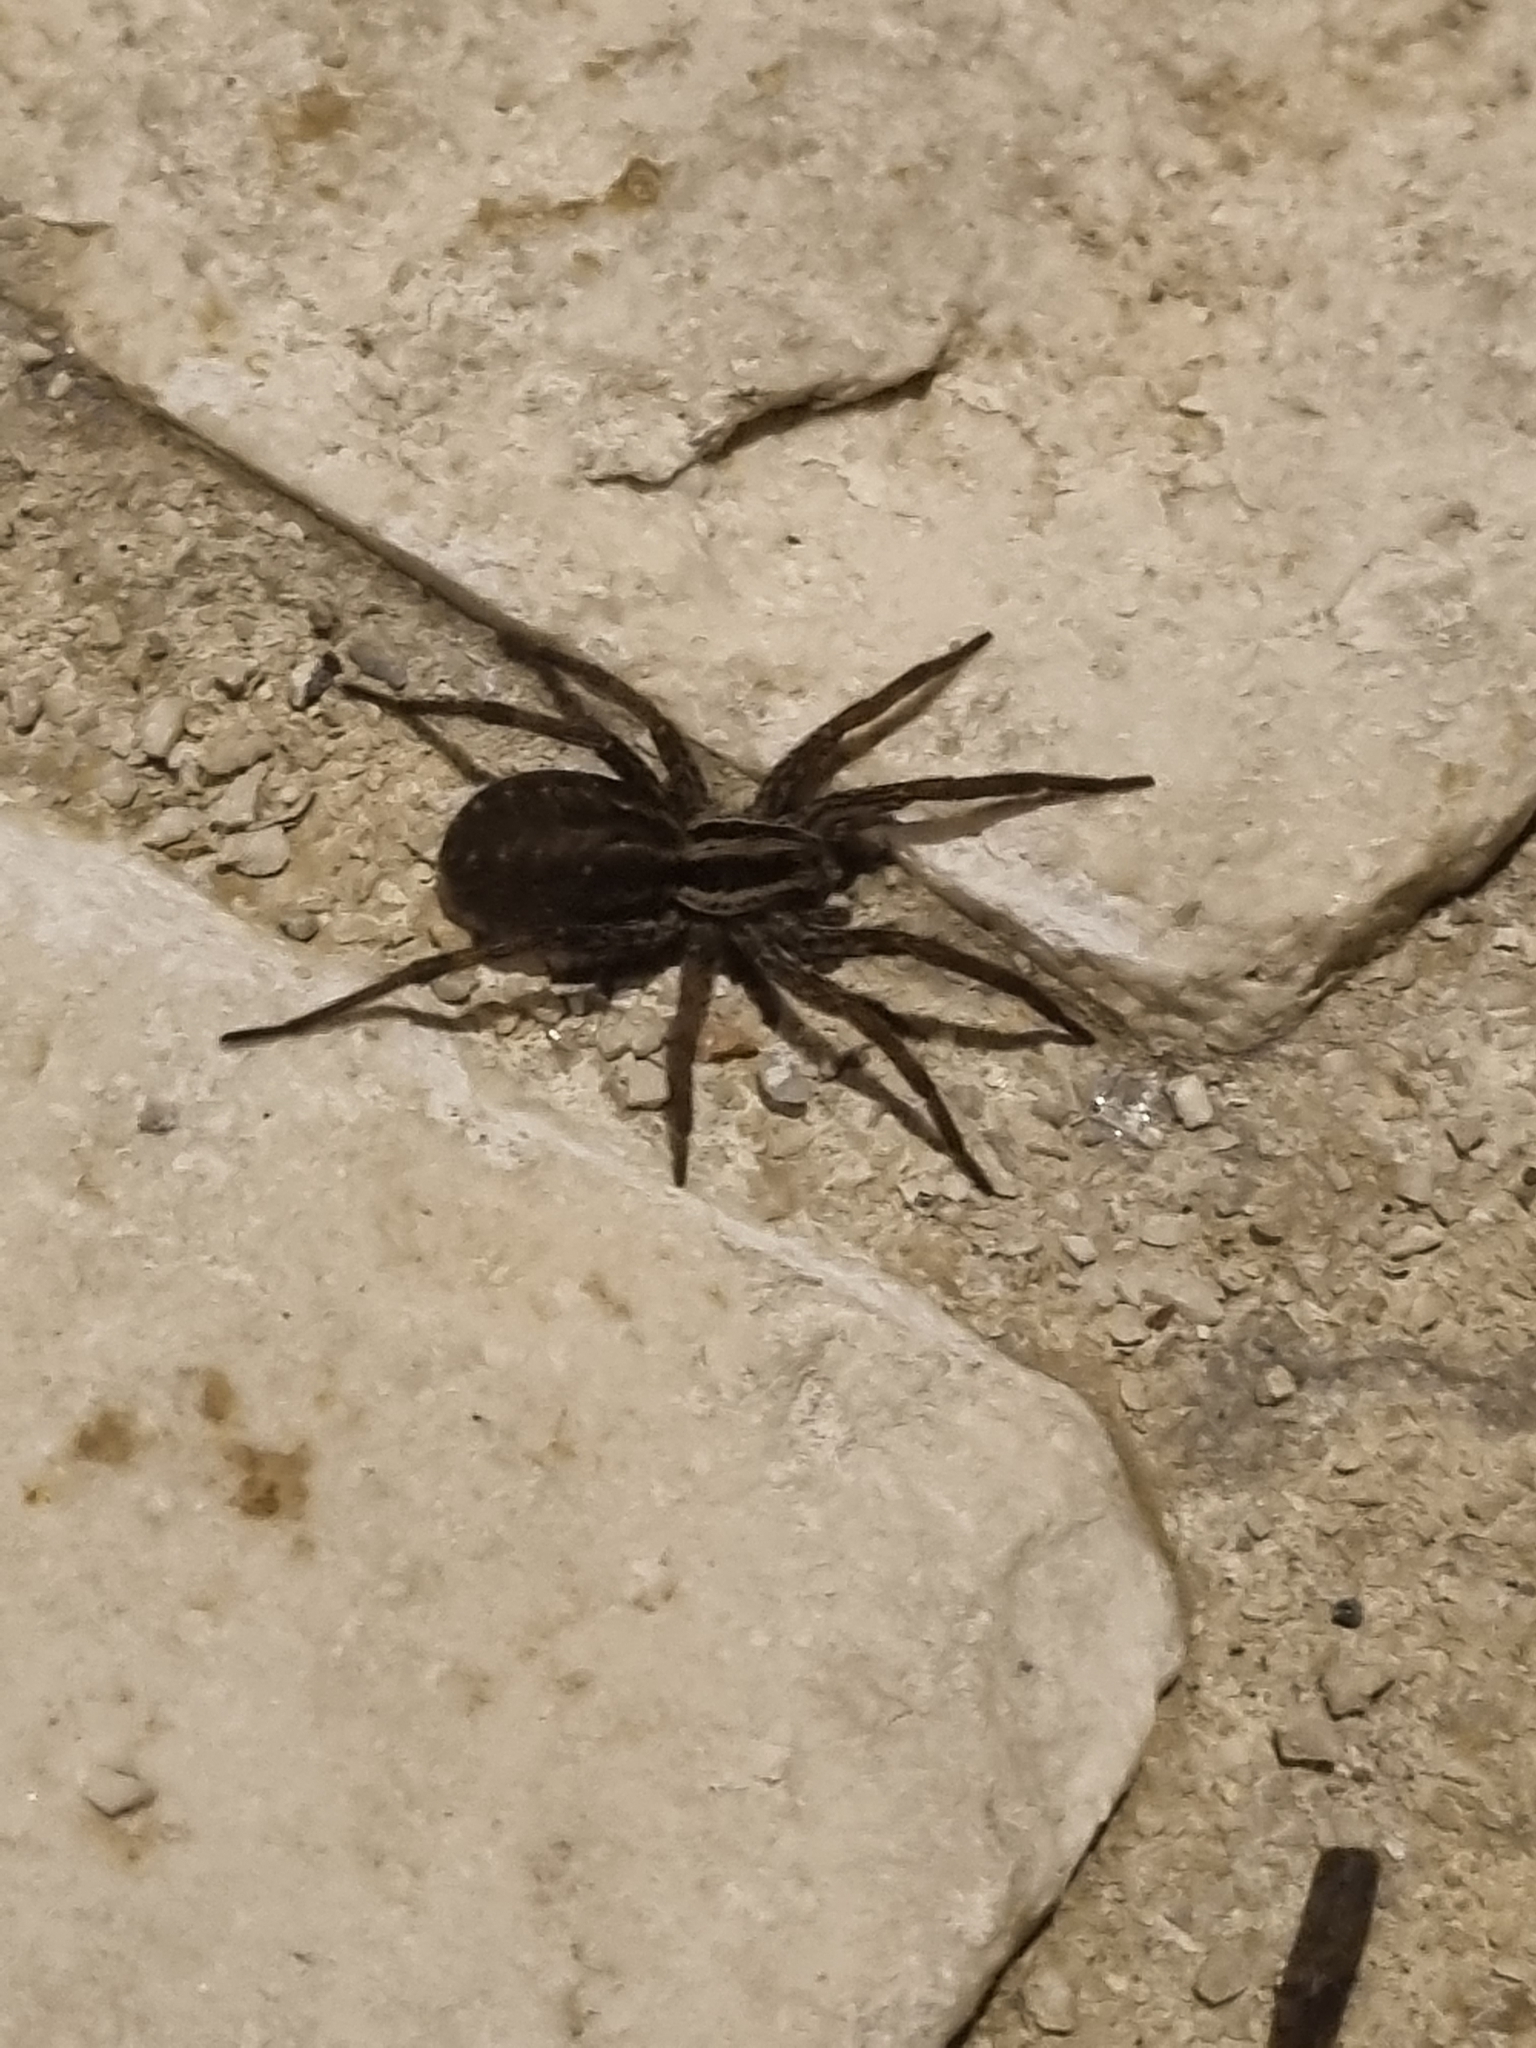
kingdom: Animalia
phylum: Arthropoda
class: Arachnida
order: Araneae
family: Lycosidae
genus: Hogna
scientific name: Hogna radiata
